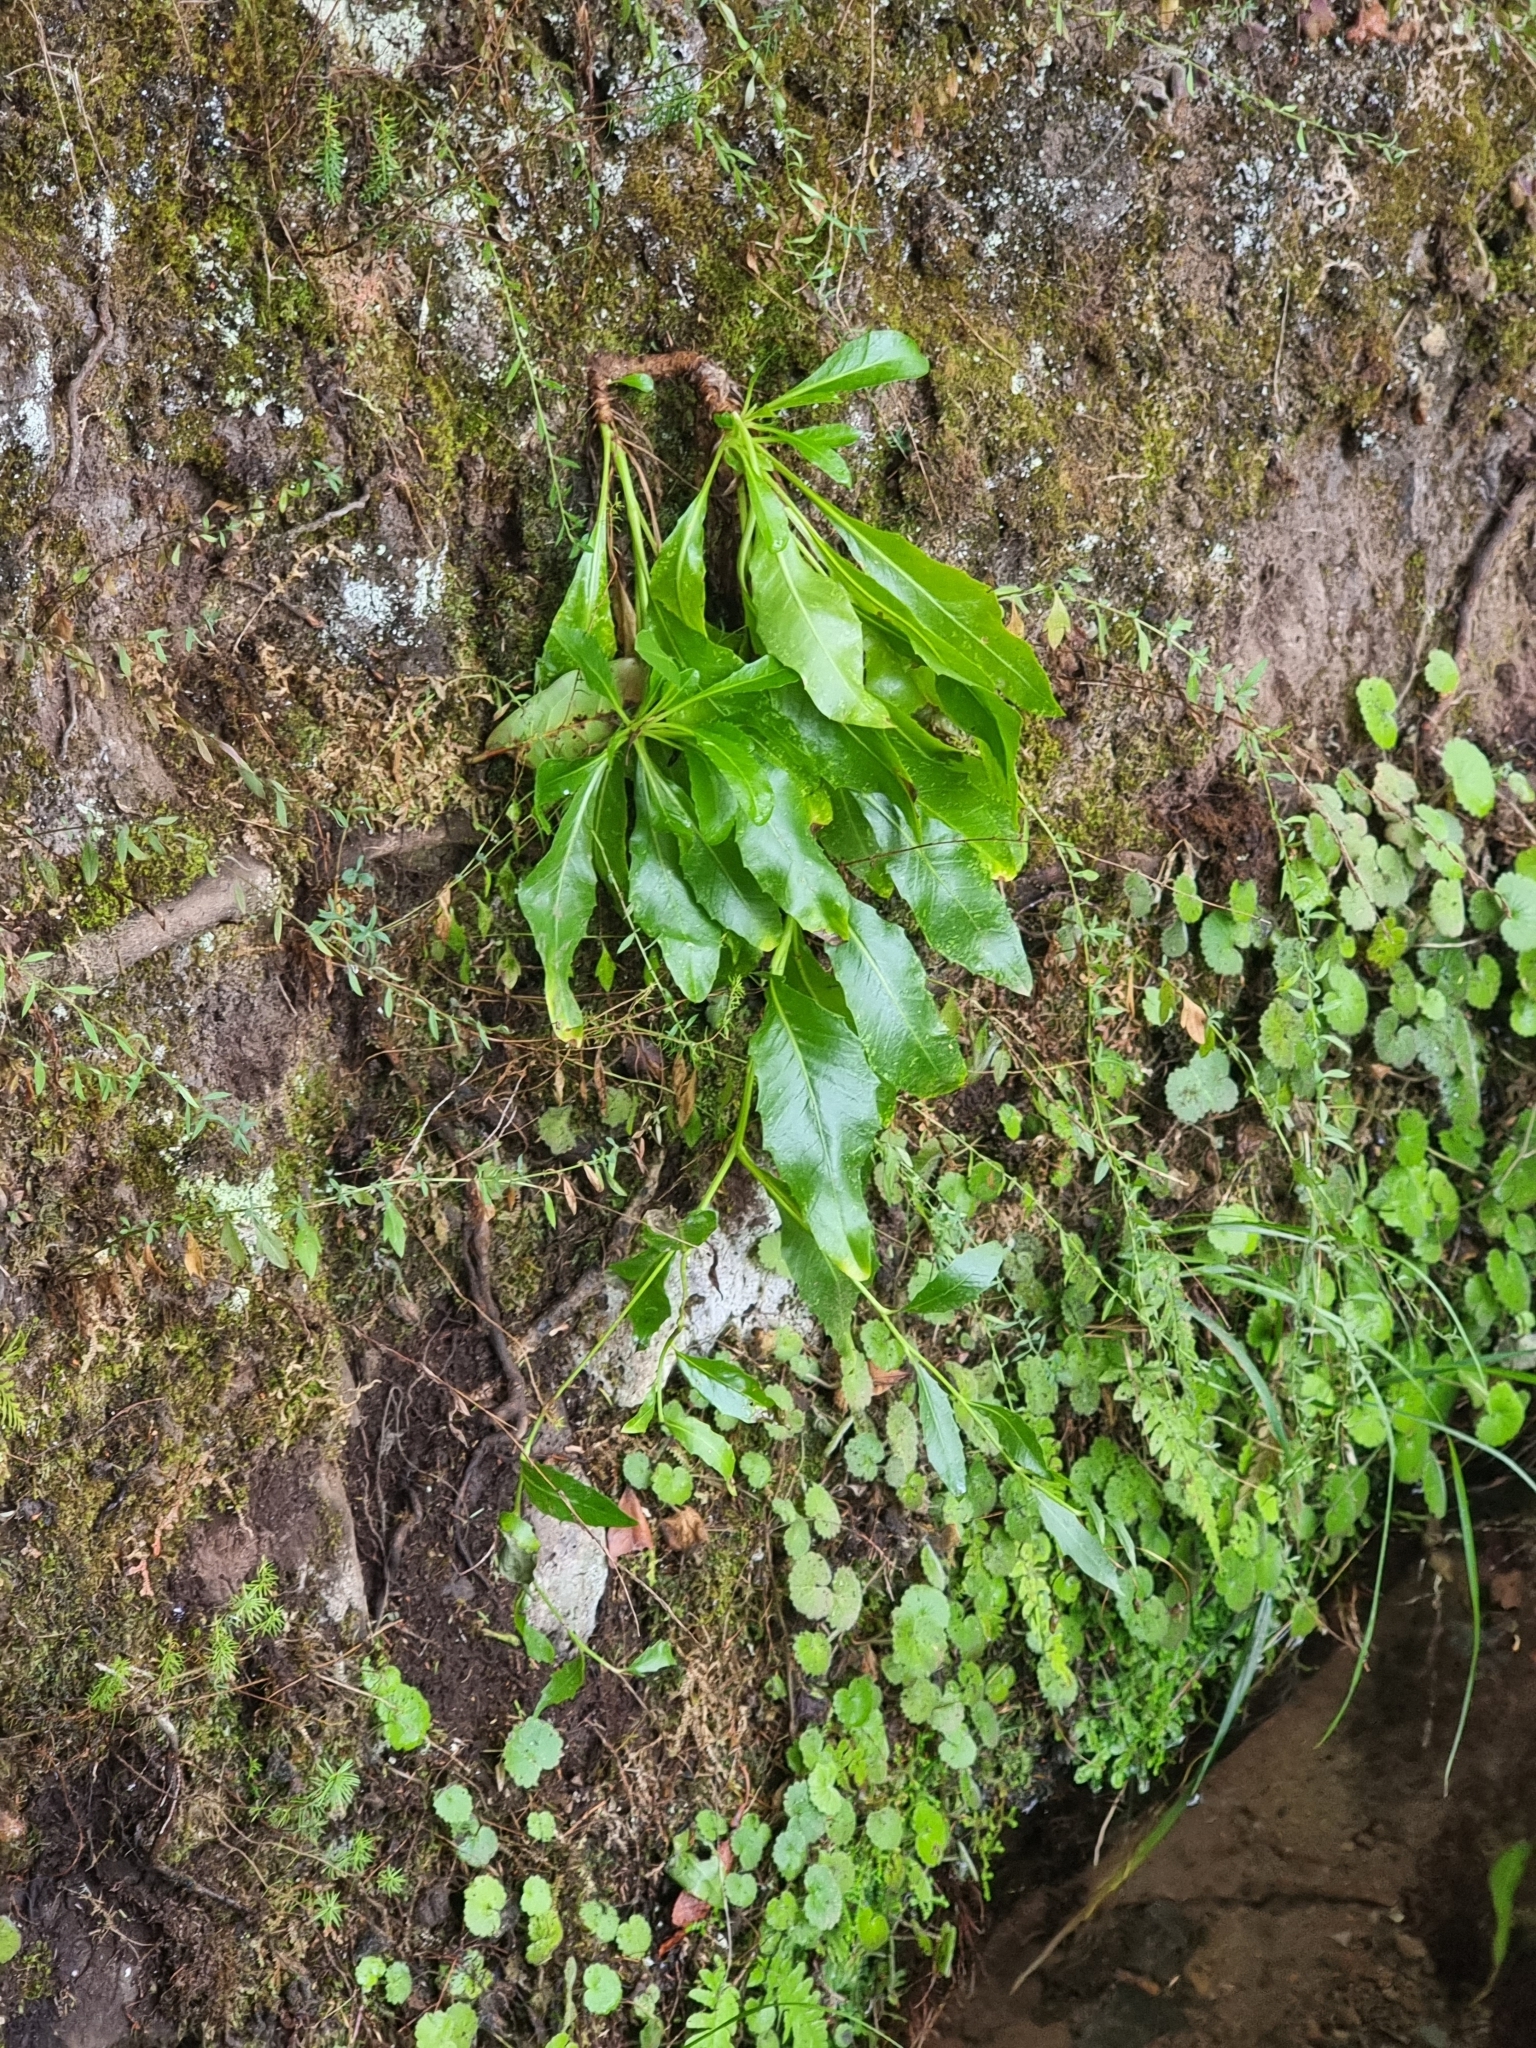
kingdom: Plantae
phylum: Tracheophyta
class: Magnoliopsida
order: Asterales
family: Asteraceae
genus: Tolpis
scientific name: Tolpis macrorhiza
